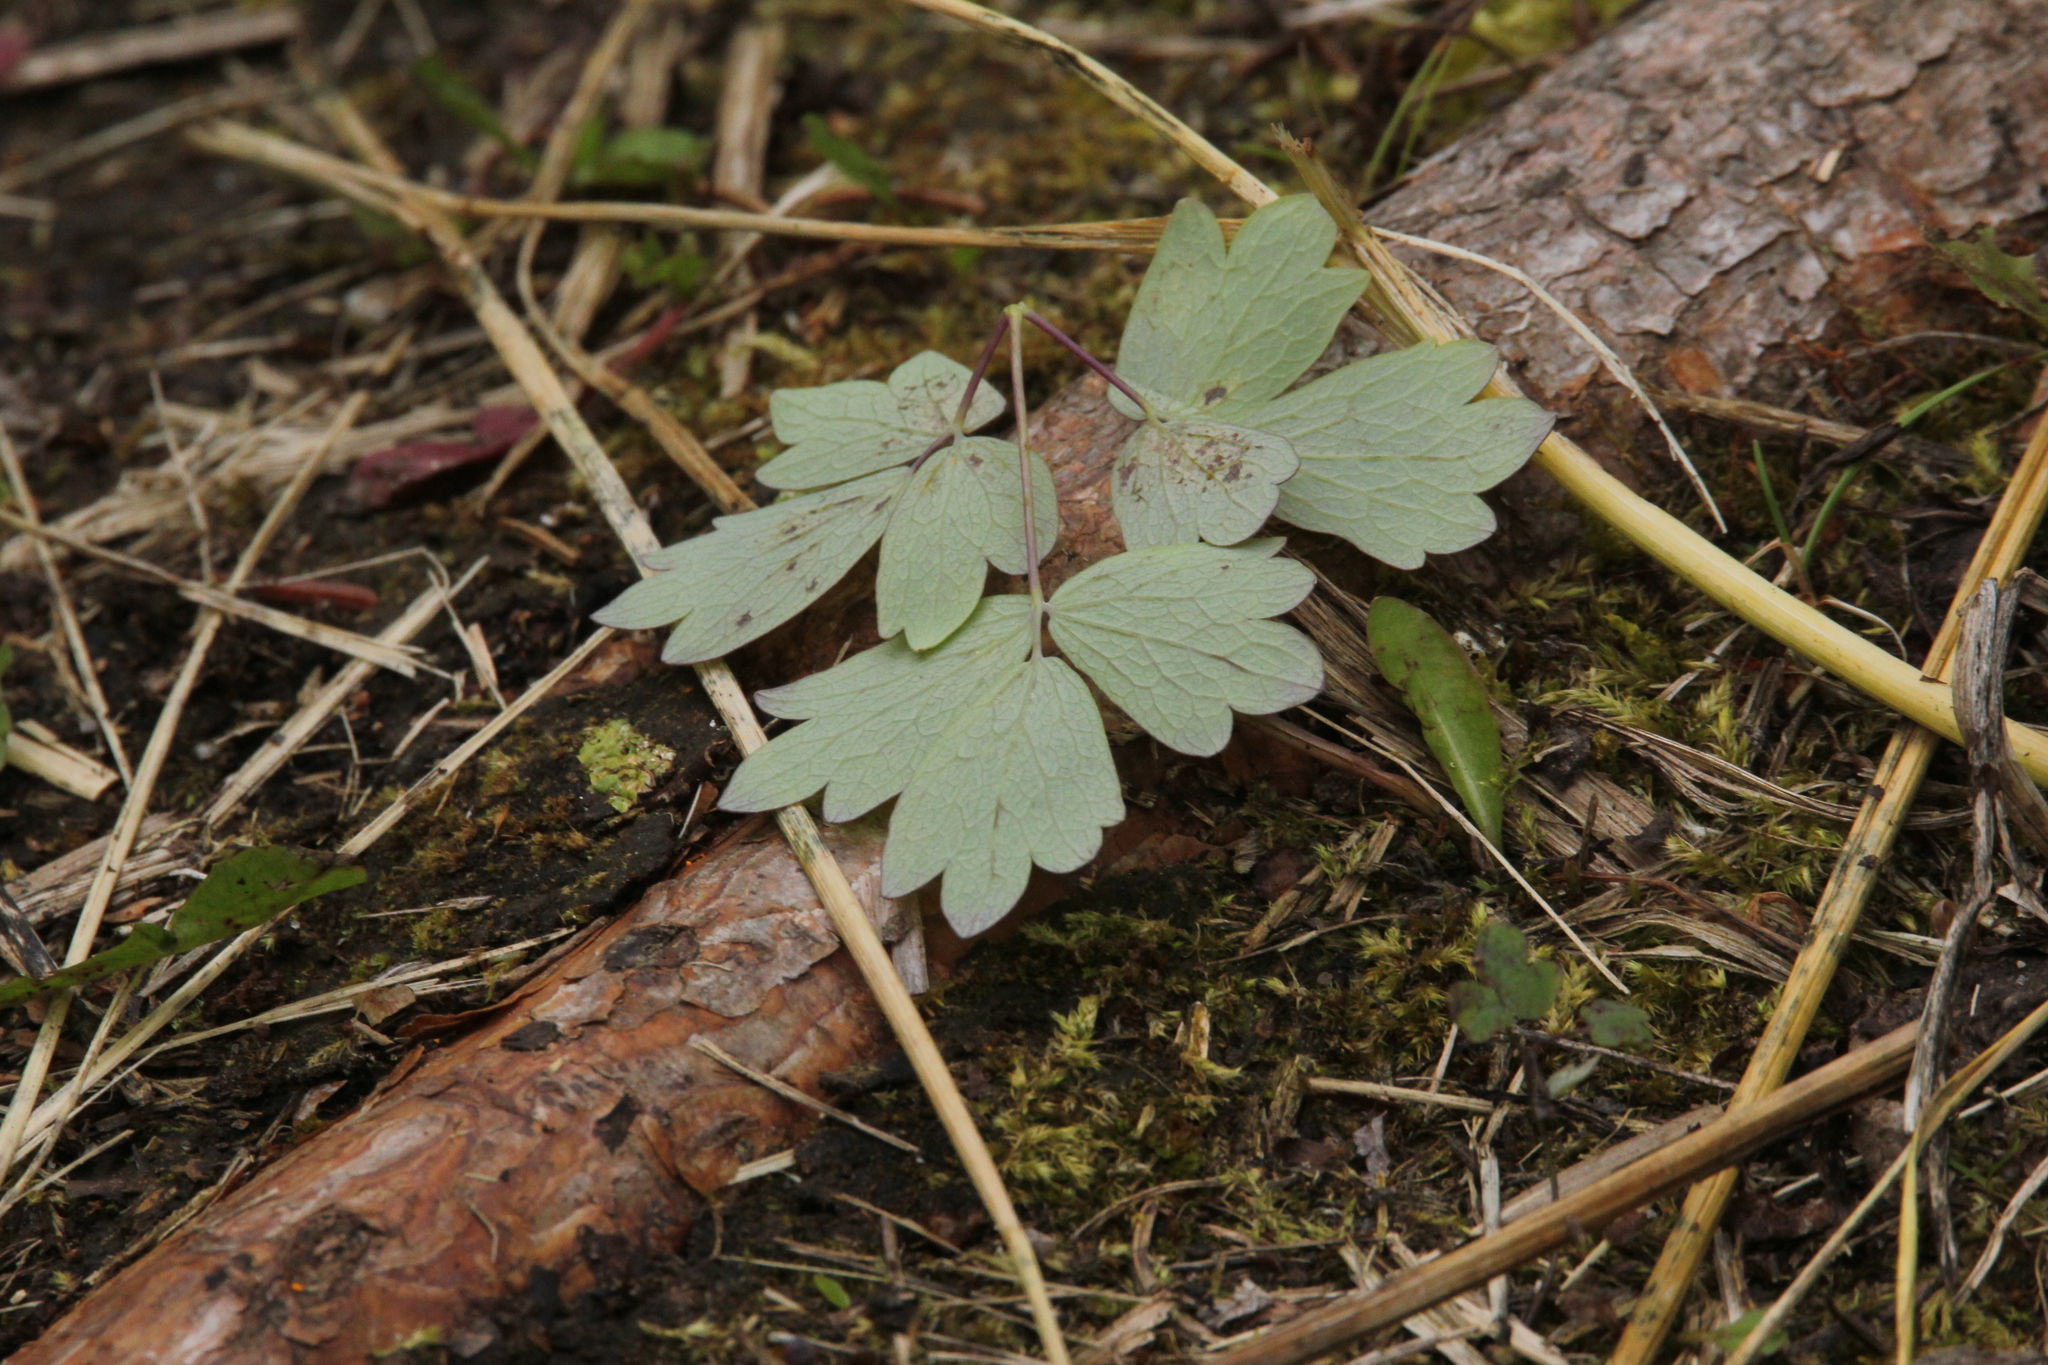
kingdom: Plantae
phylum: Tracheophyta
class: Magnoliopsida
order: Ranunculales
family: Ranunculaceae
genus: Thalictrum
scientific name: Thalictrum venulosum
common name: Early meadow-rue
